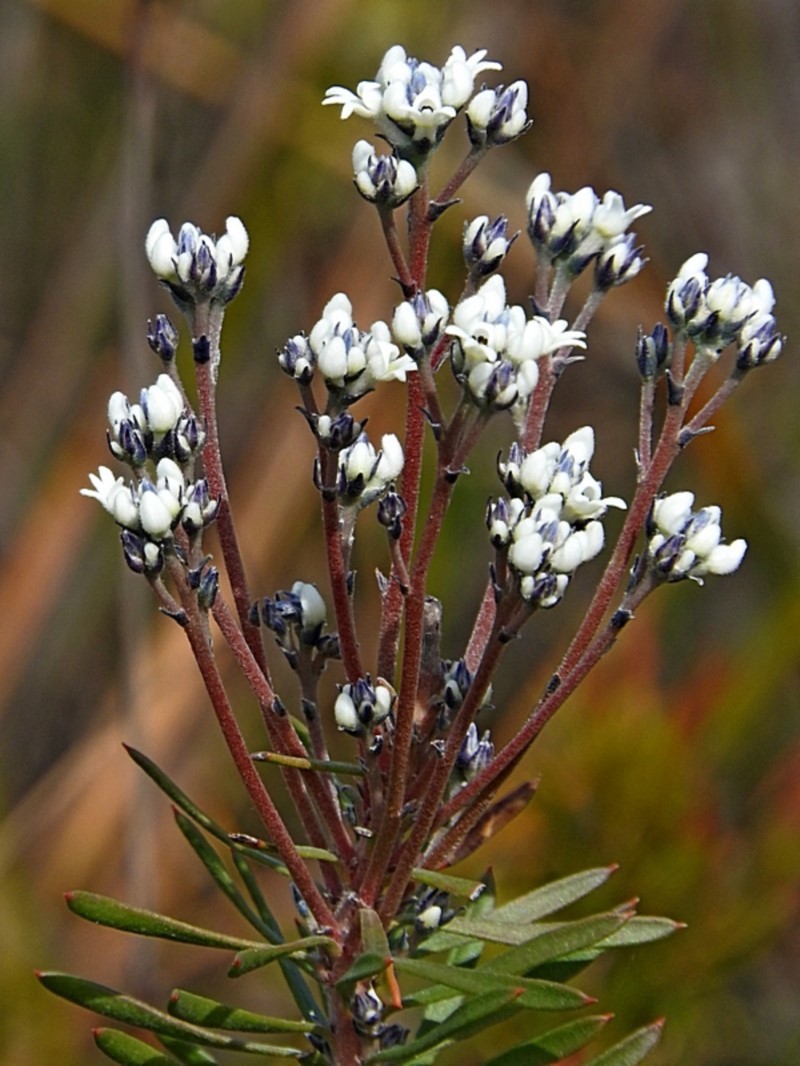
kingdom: Plantae
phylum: Tracheophyta
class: Magnoliopsida
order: Proteales
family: Proteaceae
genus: Conospermum
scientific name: Conospermum taxifolium
